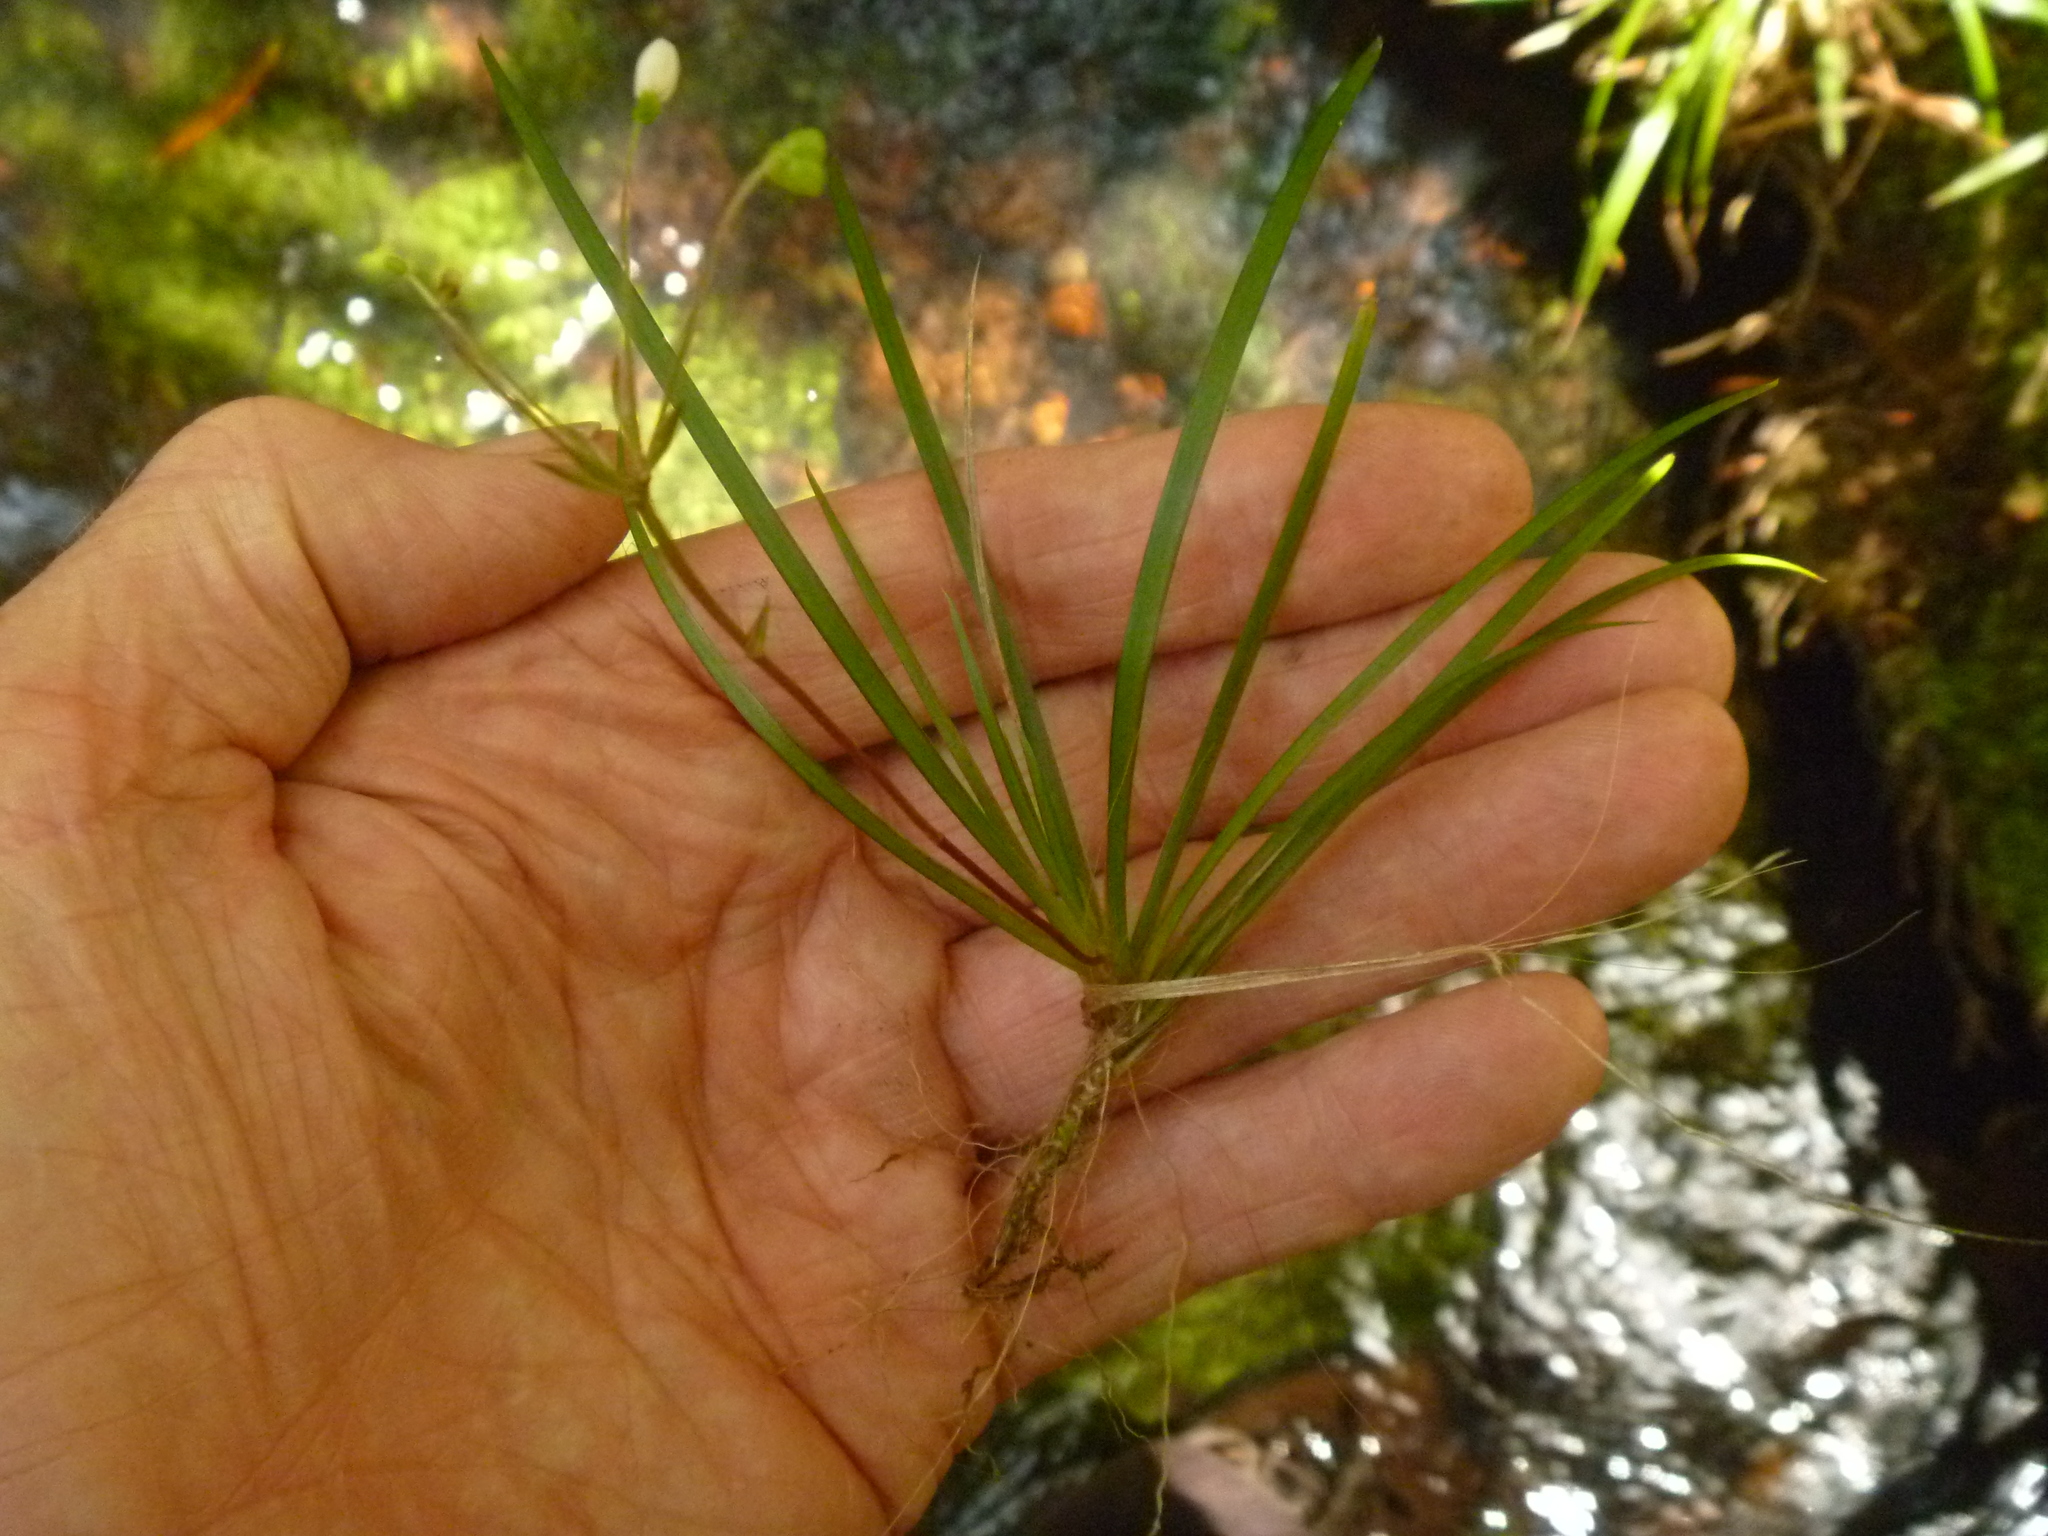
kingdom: Plantae
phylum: Tracheophyta
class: Liliopsida
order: Asparagales
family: Iridaceae
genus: Libertia
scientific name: Libertia micrantha
